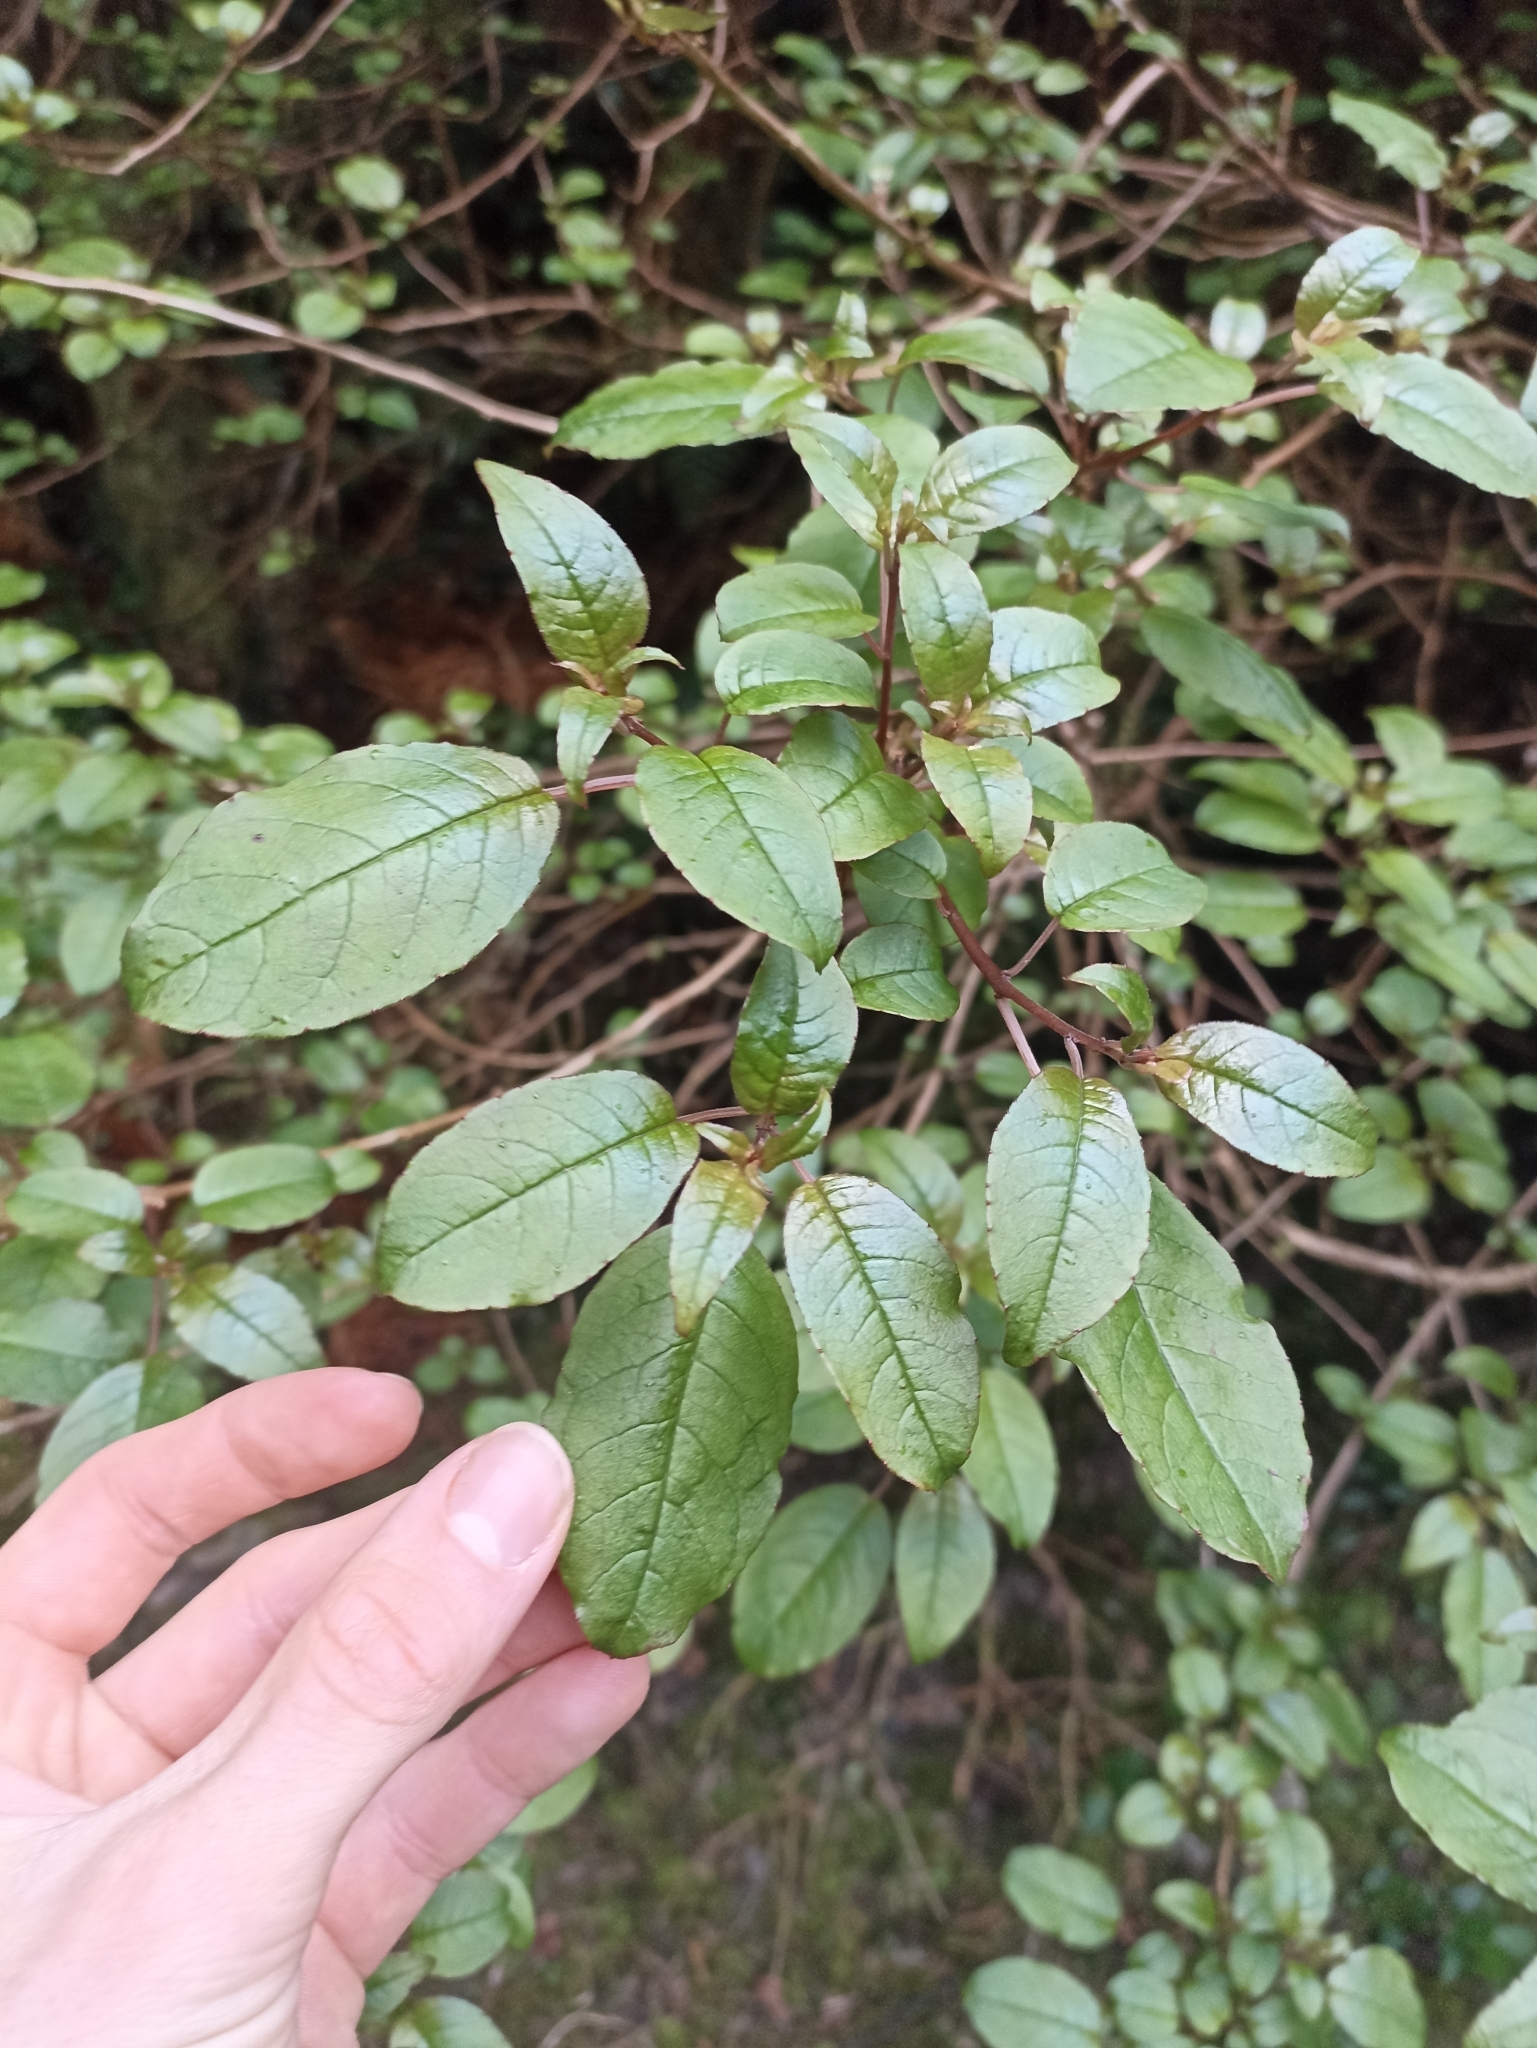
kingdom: Plantae
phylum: Tracheophyta
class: Magnoliopsida
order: Myrtales
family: Onagraceae
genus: Fuchsia
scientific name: Fuchsia excorticata
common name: Tree fuchsia
